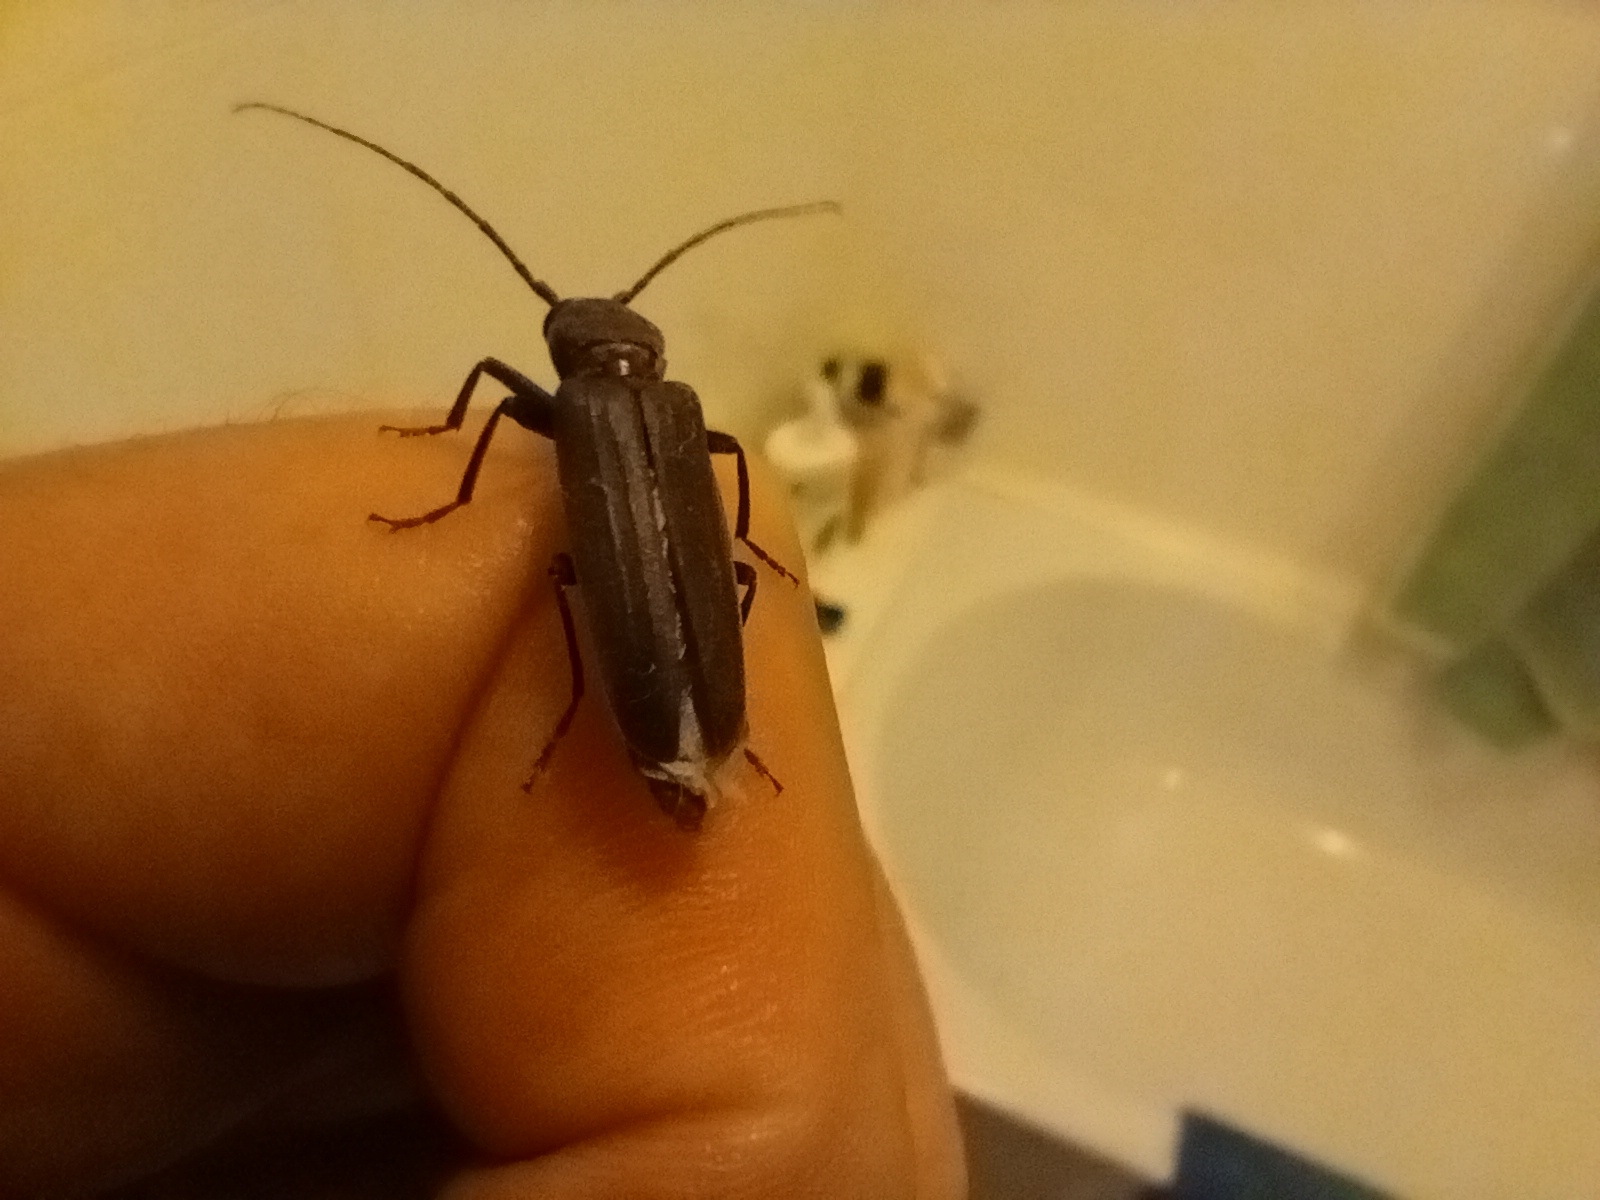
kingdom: Animalia
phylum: Arthropoda
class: Insecta
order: Coleoptera
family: Cerambycidae
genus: Arhopalus
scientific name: Arhopalus ferus
